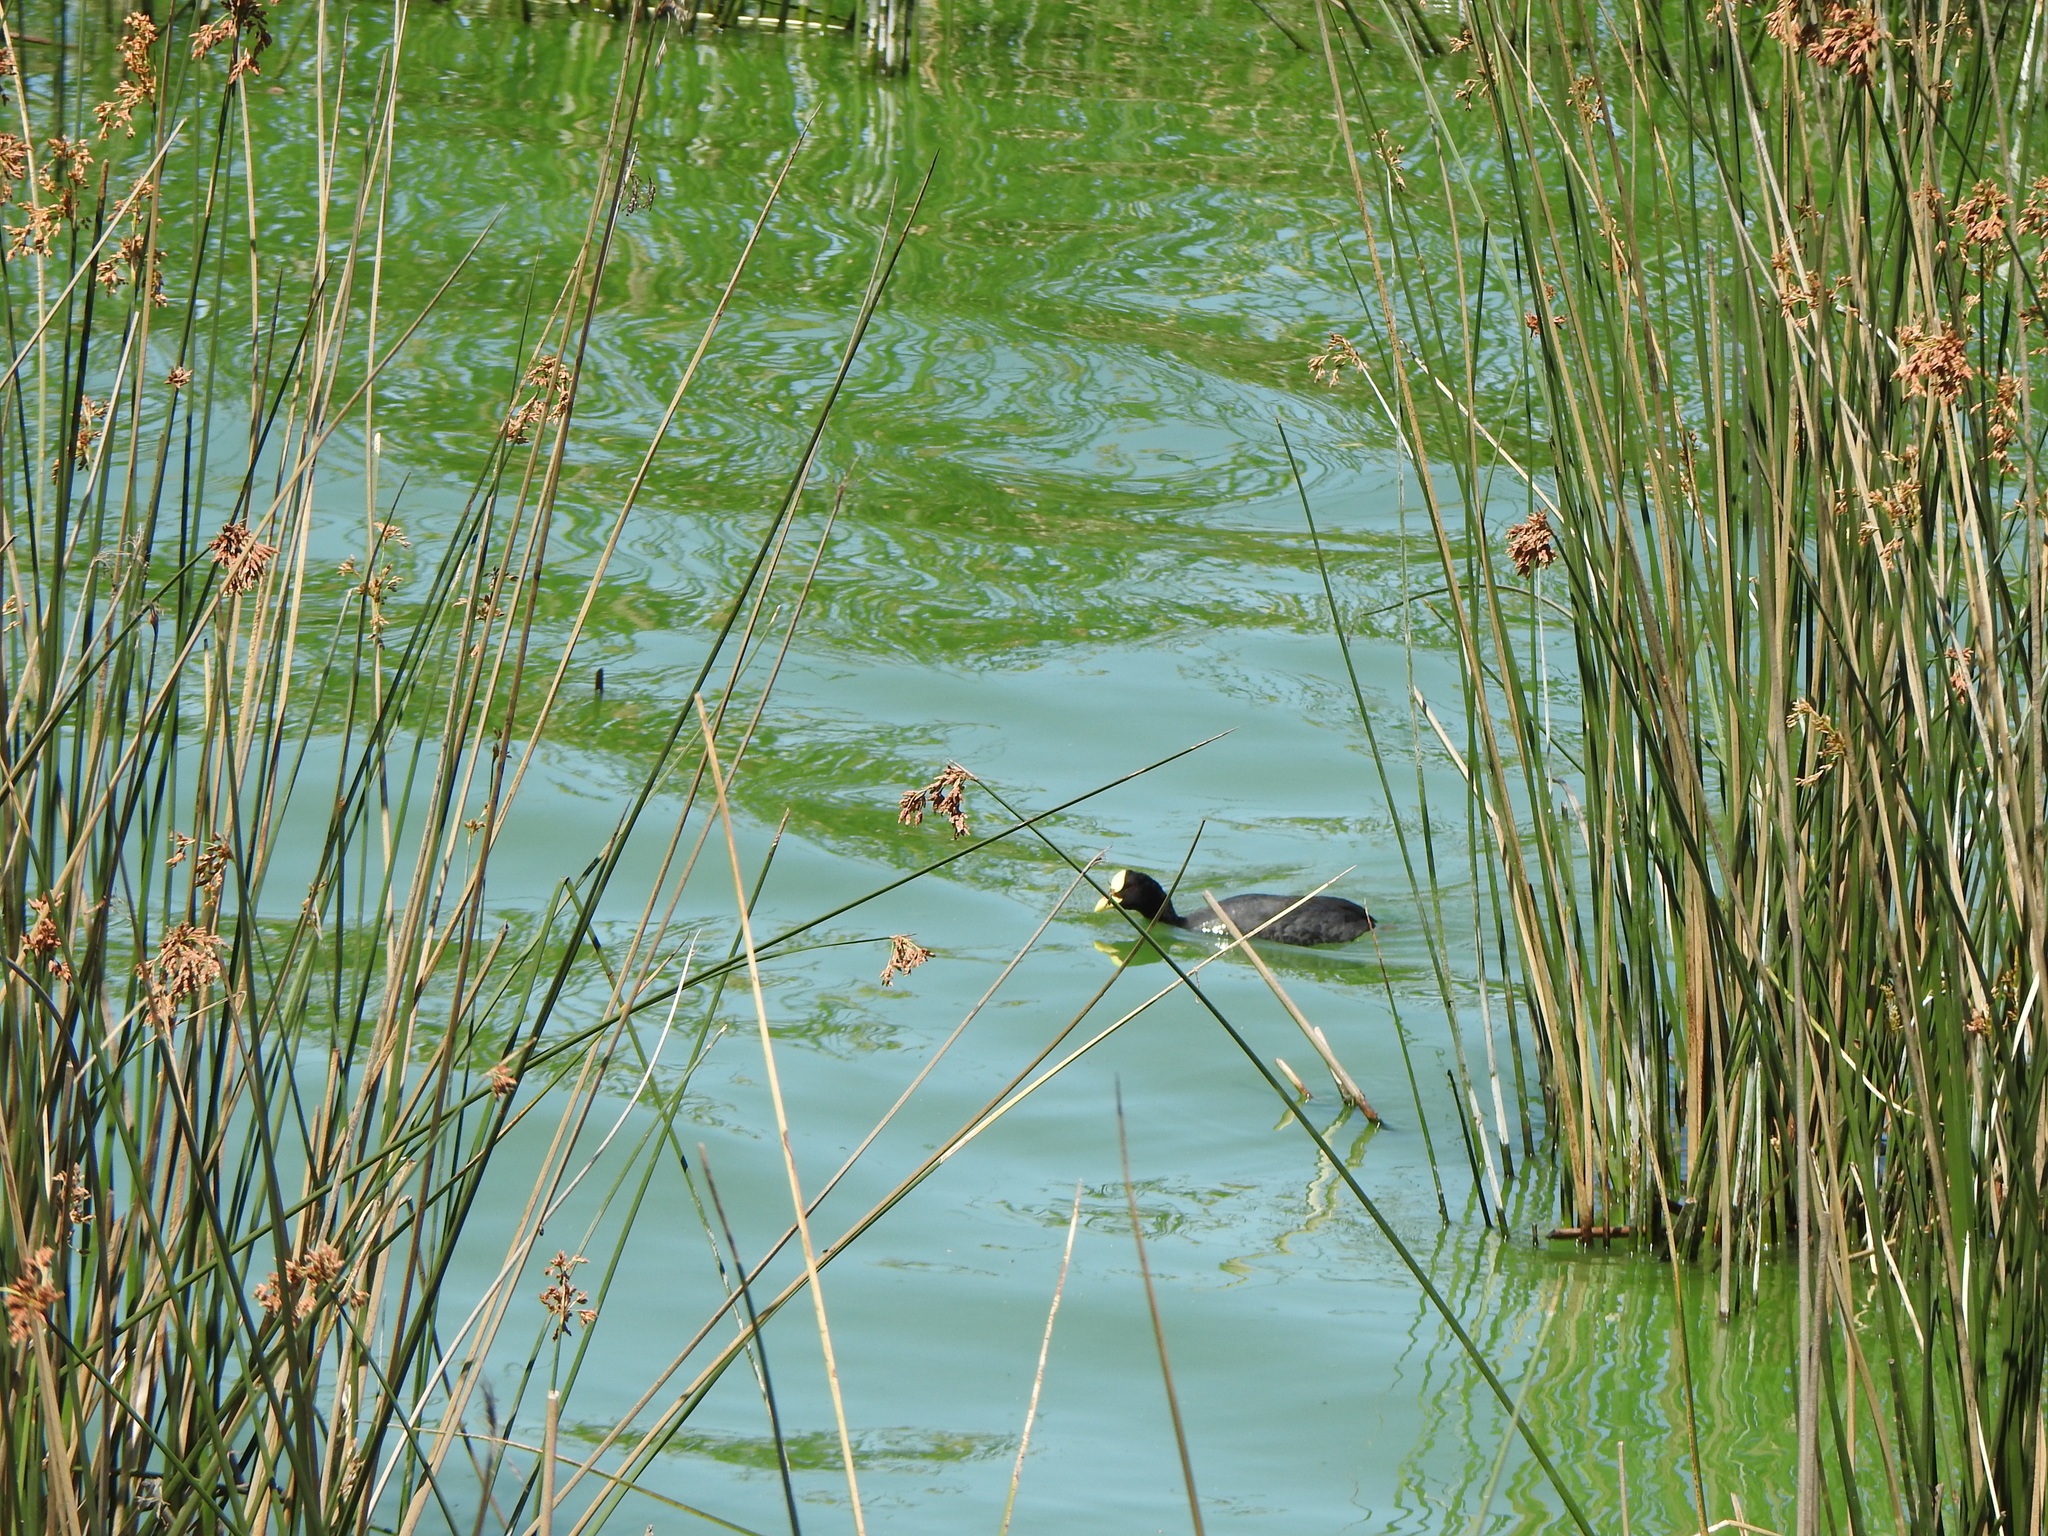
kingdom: Animalia
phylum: Chordata
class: Aves
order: Gruiformes
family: Rallidae
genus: Fulica
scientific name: Fulica armillata
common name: Red-gartered coot
